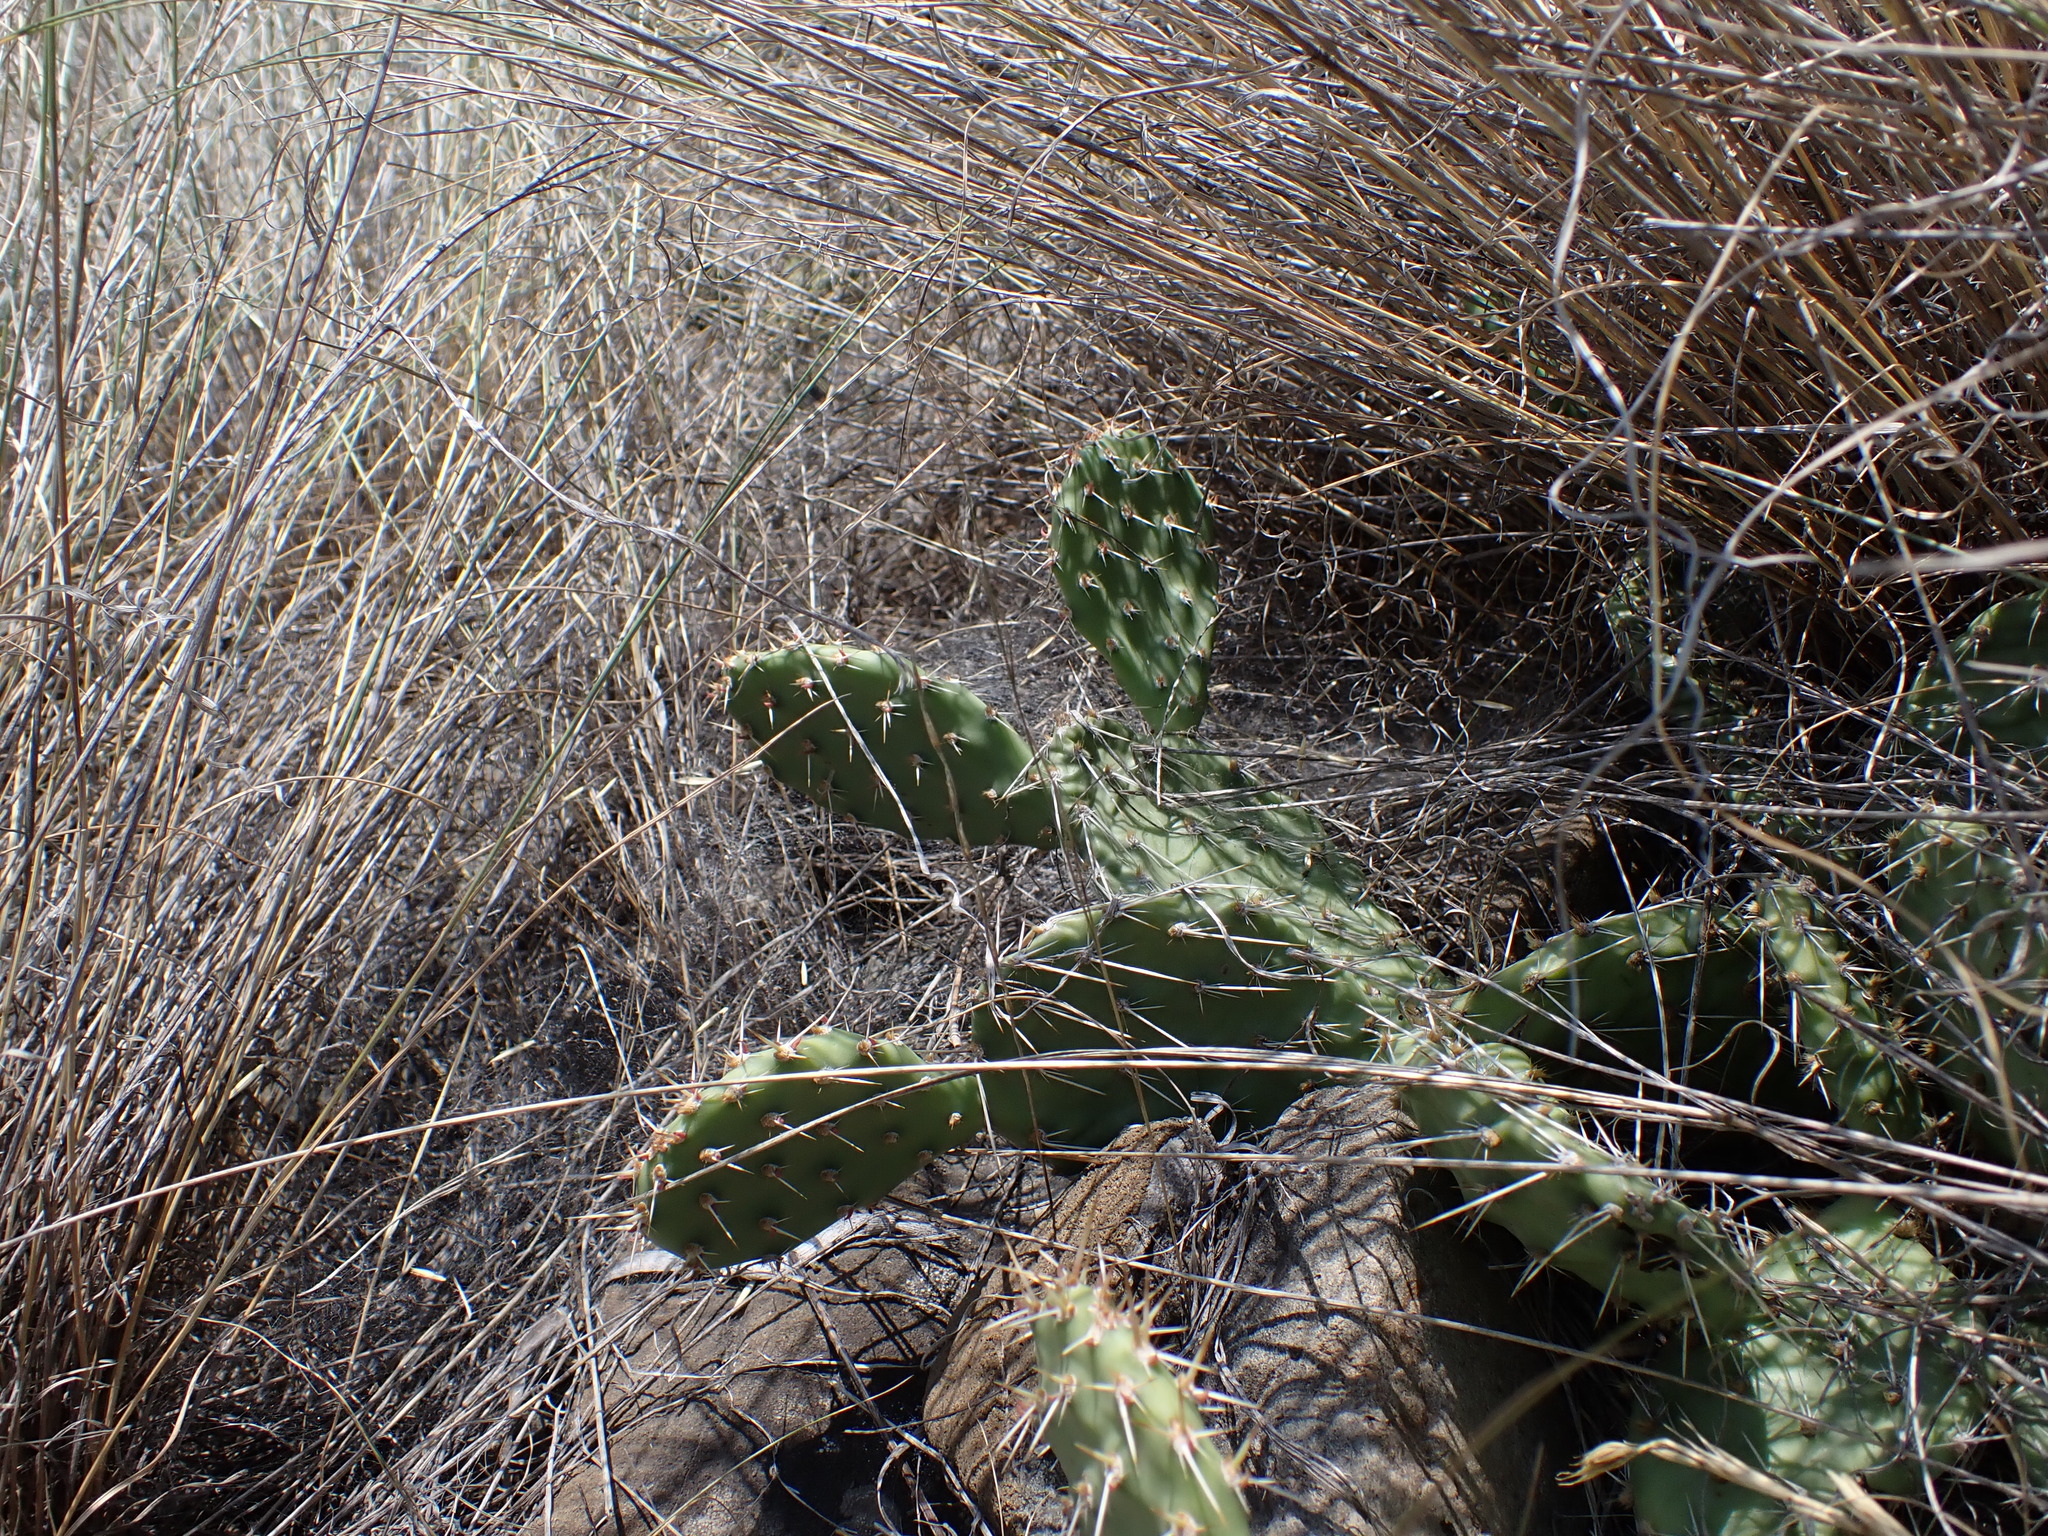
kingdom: Plantae
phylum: Tracheophyta
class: Magnoliopsida
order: Caryophyllales
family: Cactaceae
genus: Opuntia
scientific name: Opuntia columbiana
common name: Columbia prickly-pear
